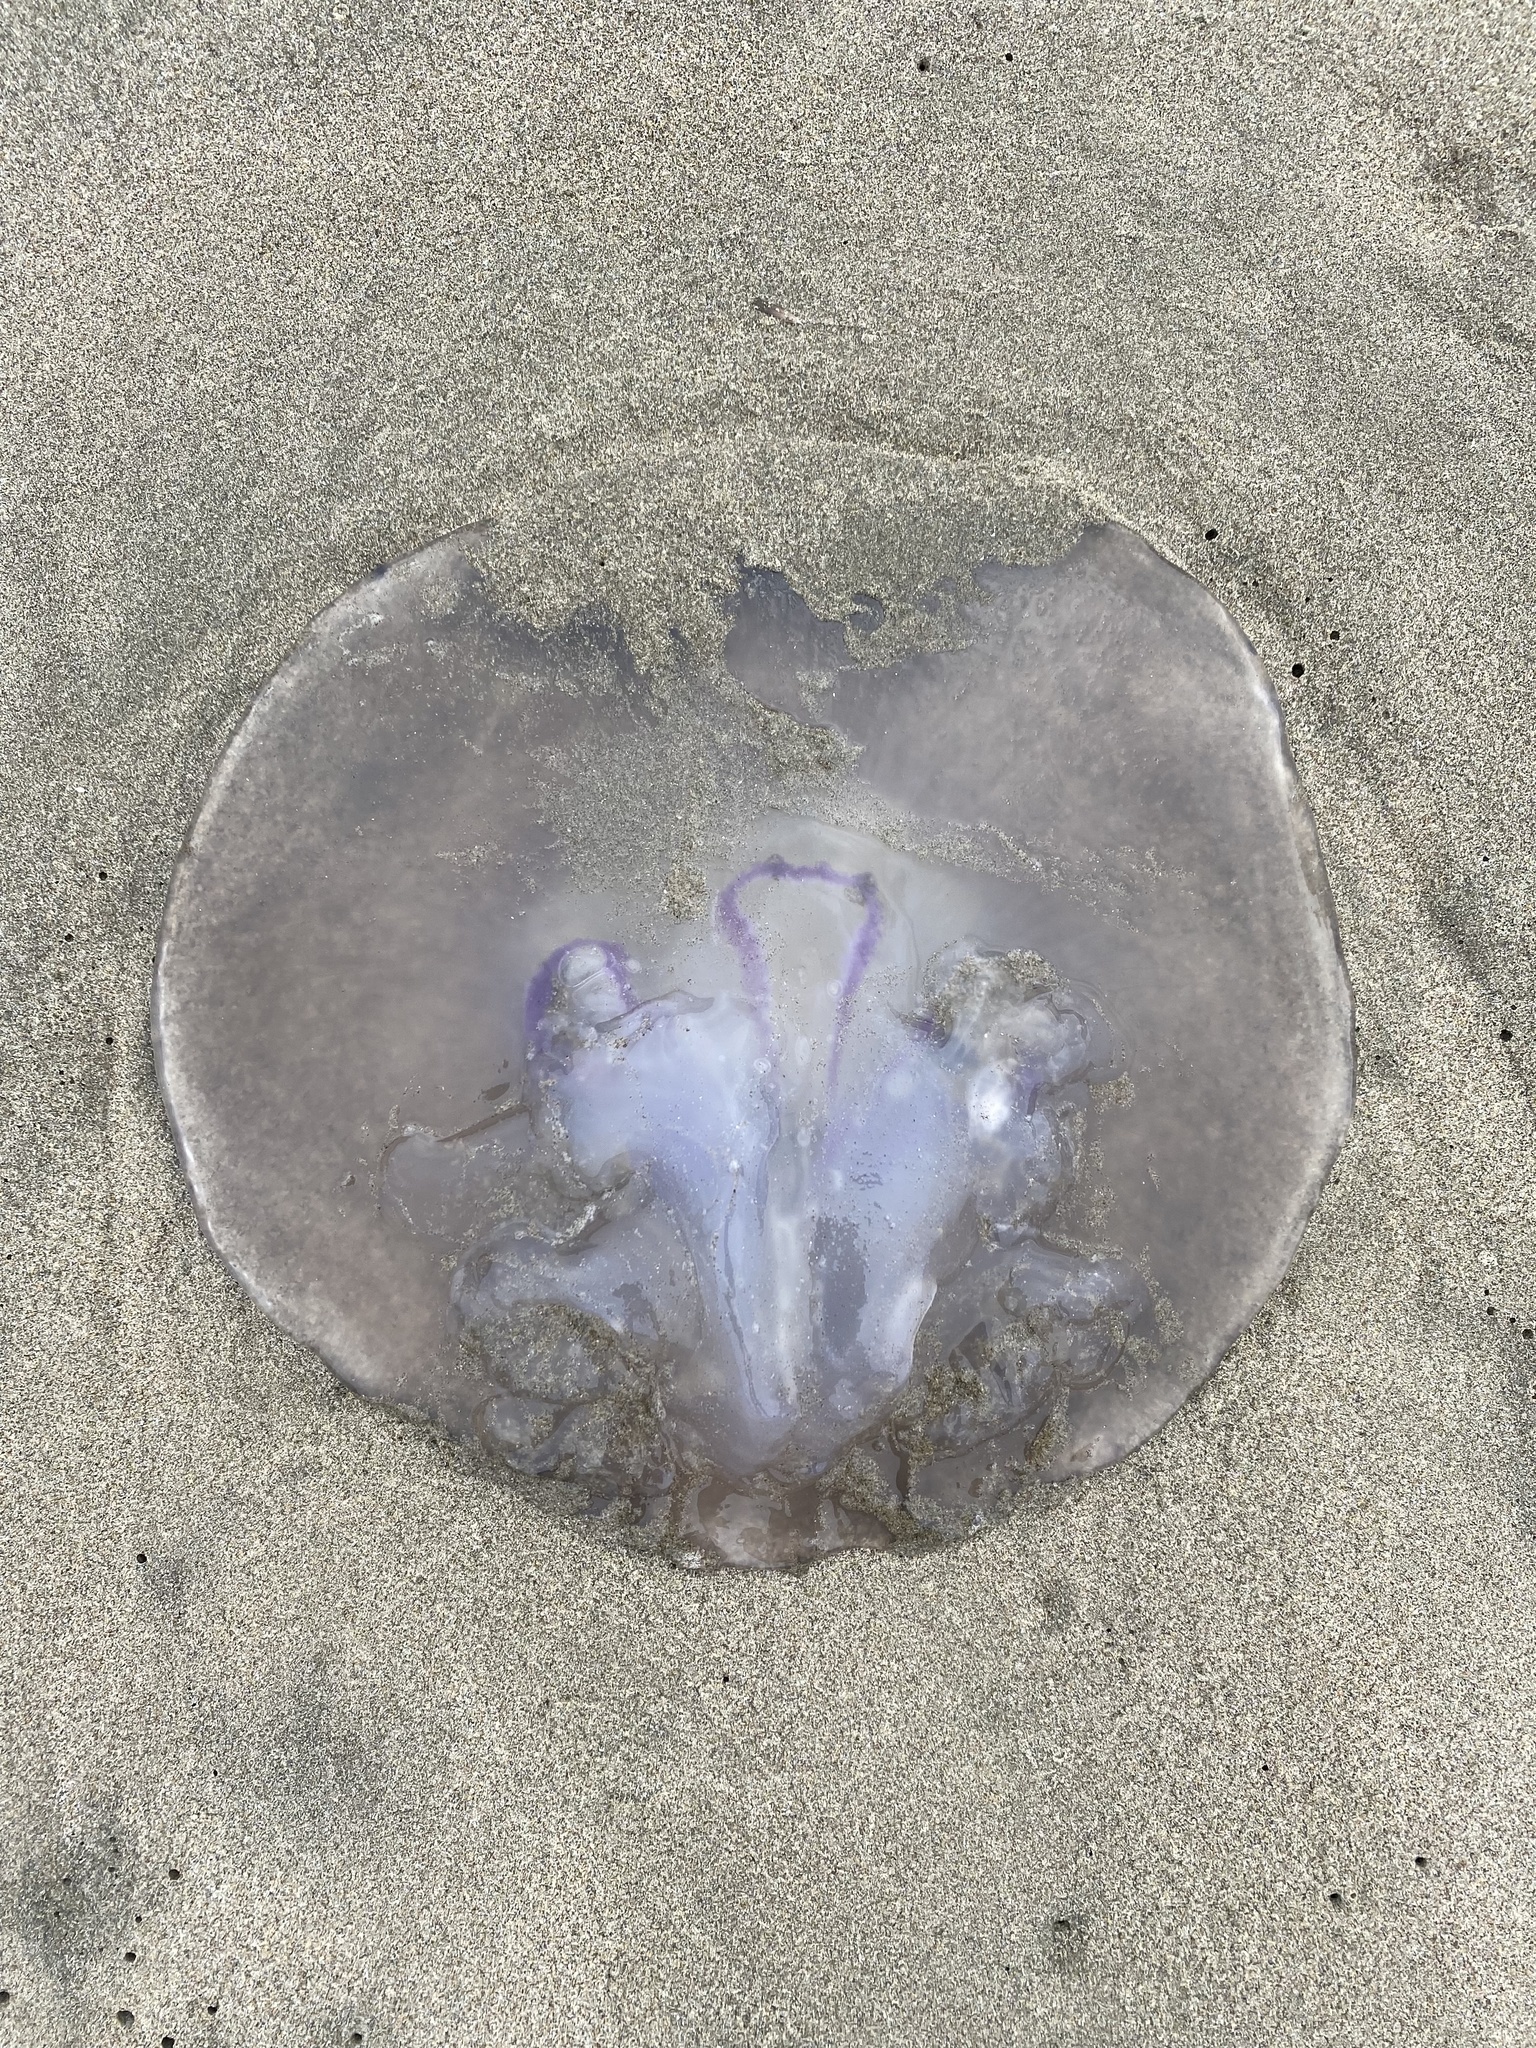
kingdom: Animalia
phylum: Cnidaria
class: Scyphozoa
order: Semaeostomeae
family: Ulmaridae
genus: Aurelia
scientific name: Aurelia labiata
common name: Pacific moon jelly
